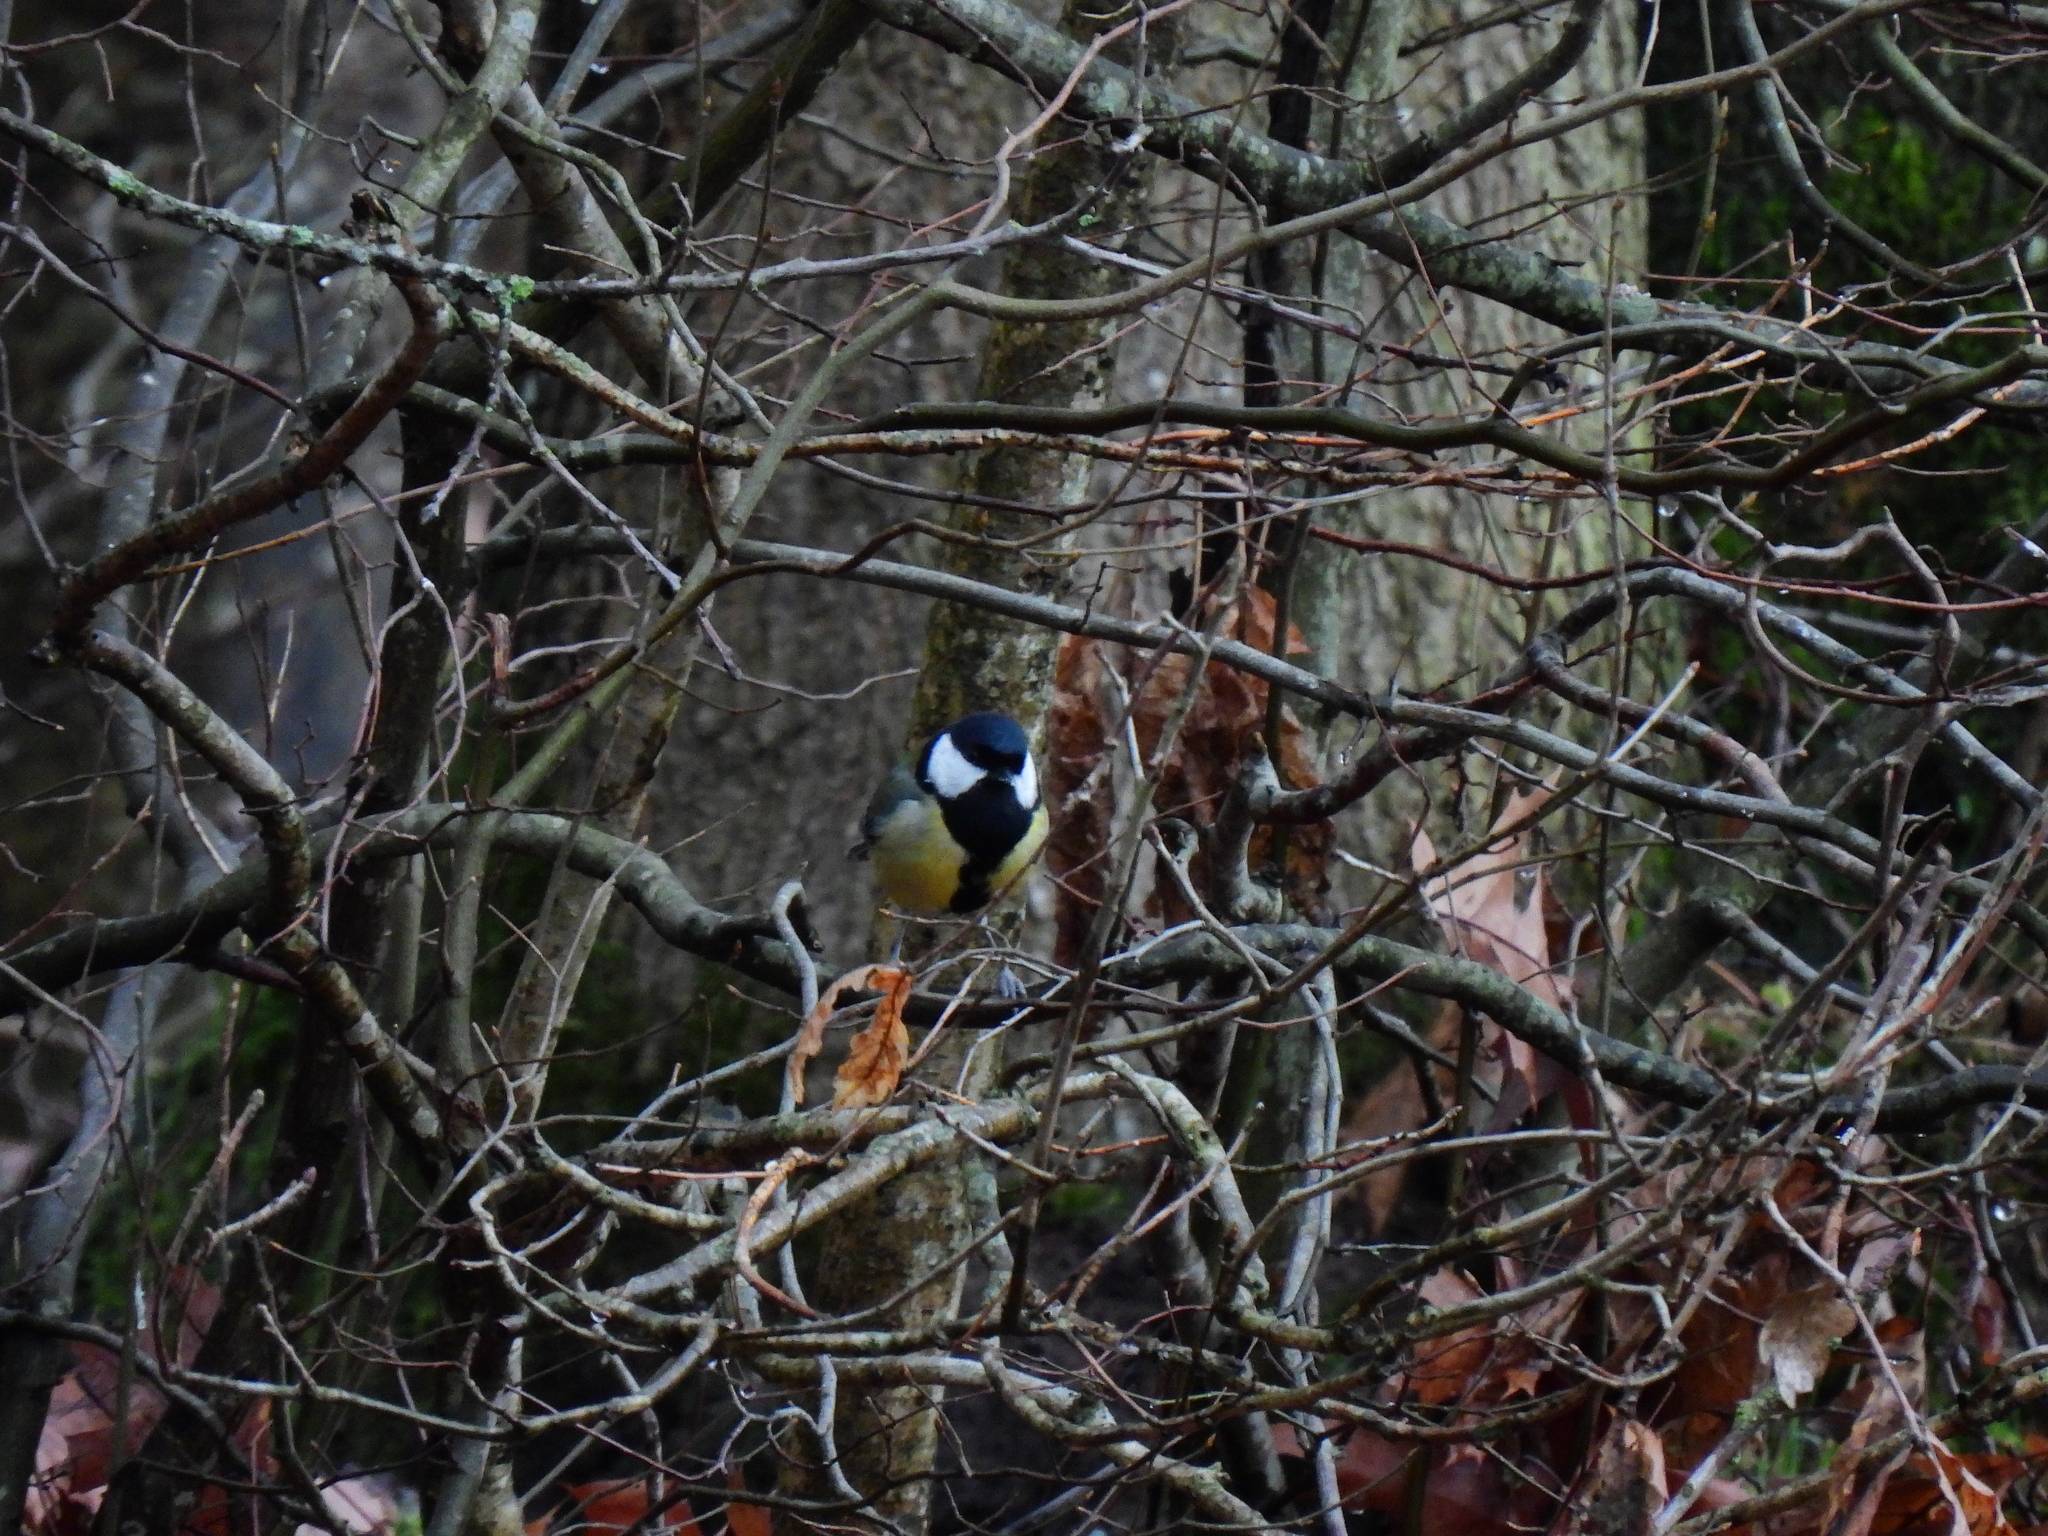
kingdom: Animalia
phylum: Chordata
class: Aves
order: Passeriformes
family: Paridae
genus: Parus
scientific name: Parus major
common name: Great tit
